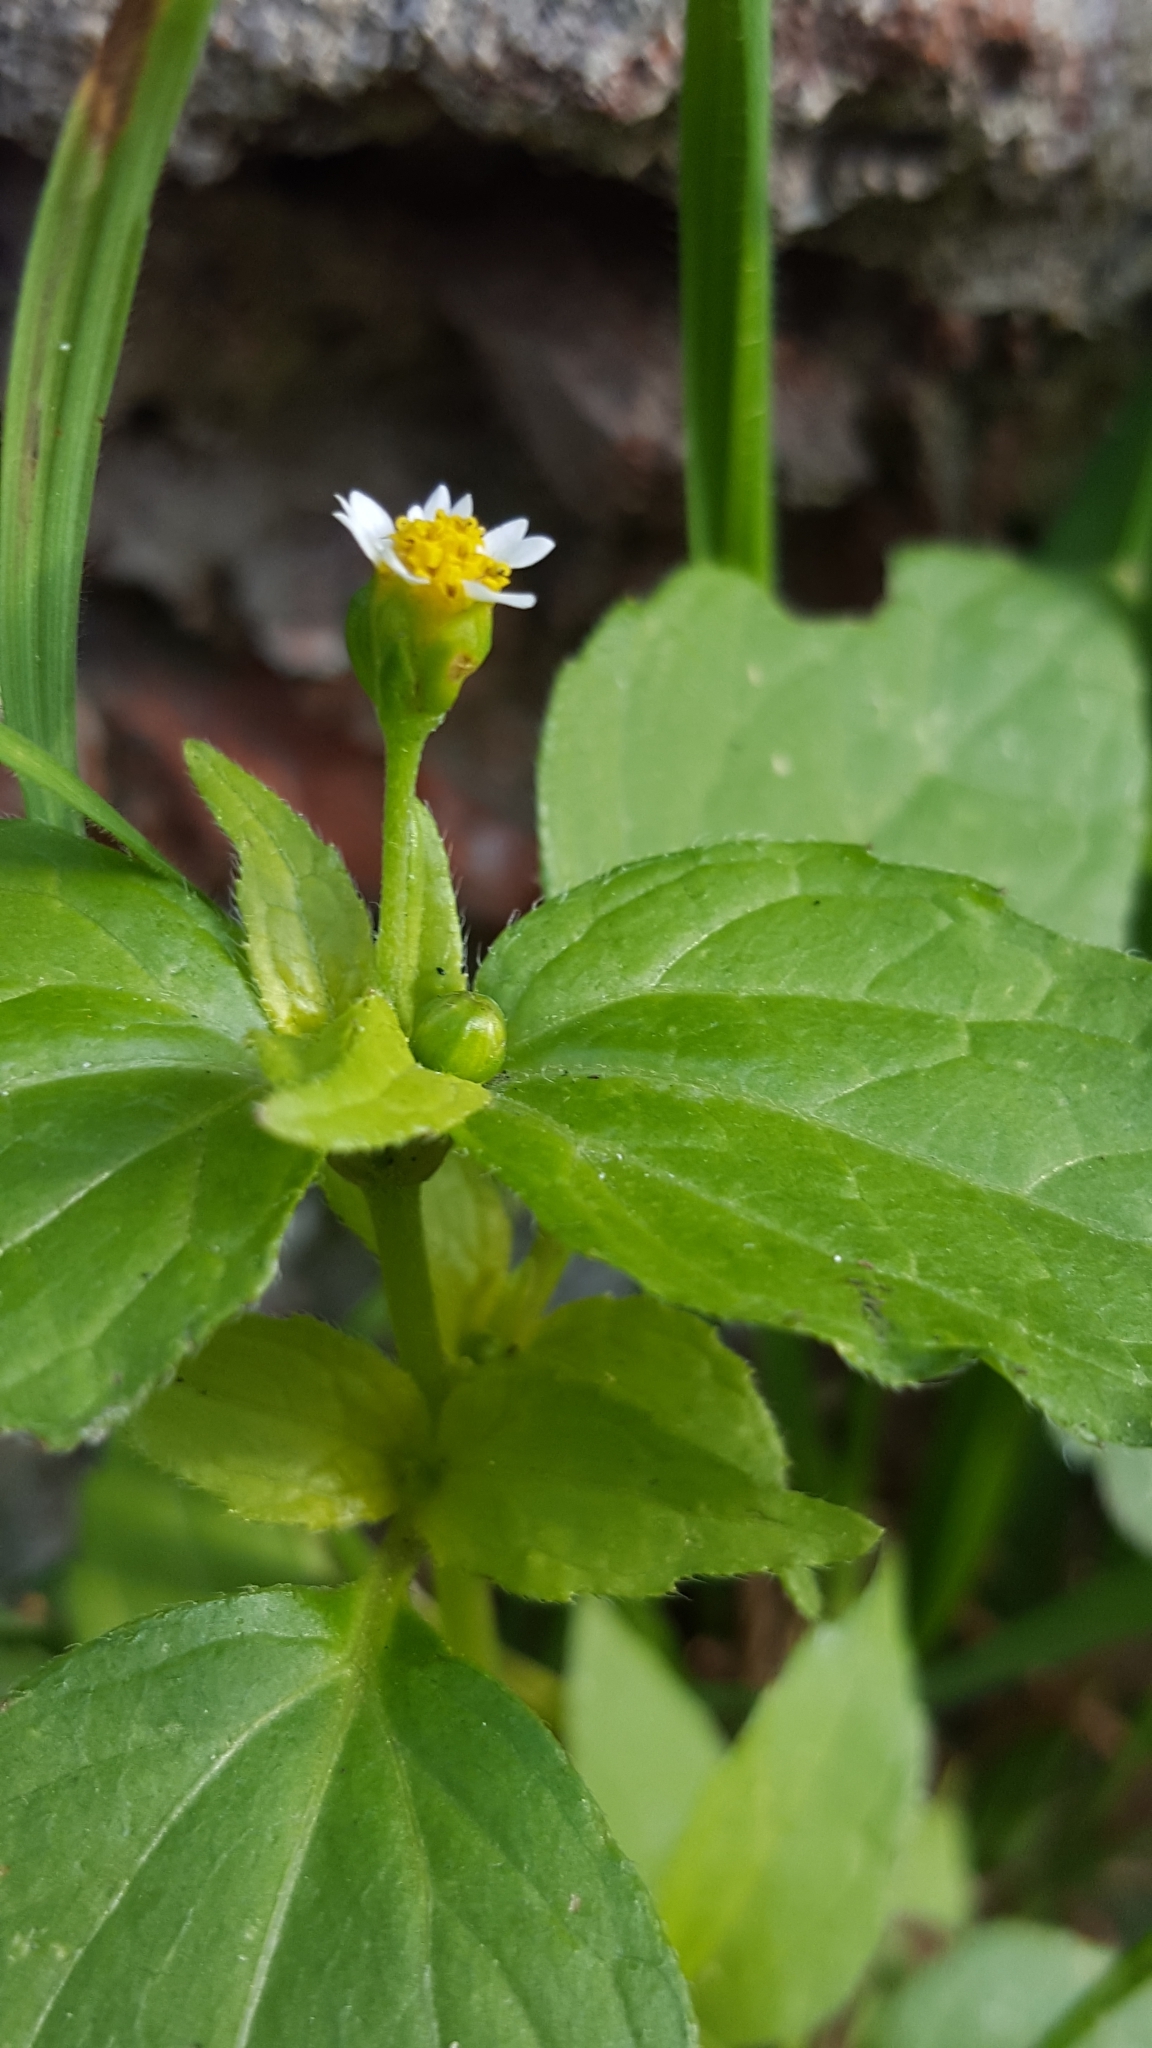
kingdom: Plantae
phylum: Tracheophyta
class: Magnoliopsida
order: Asterales
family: Asteraceae
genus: Galinsoga
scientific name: Galinsoga quadriradiata
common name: Shaggy soldier
